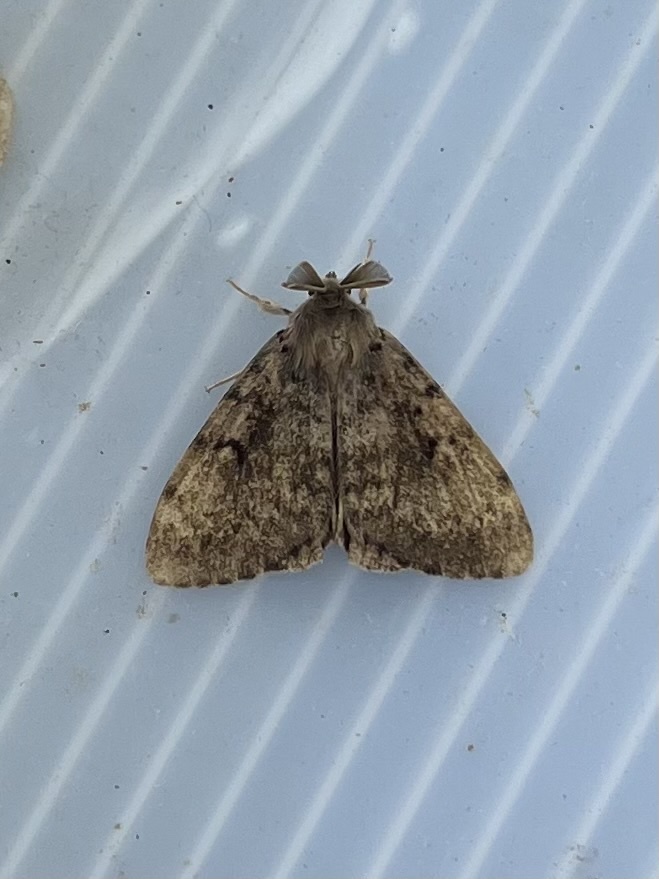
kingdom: Animalia
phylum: Arthropoda
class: Insecta
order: Lepidoptera
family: Erebidae
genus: Lymantria
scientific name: Lymantria dispar
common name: Gypsy moth
